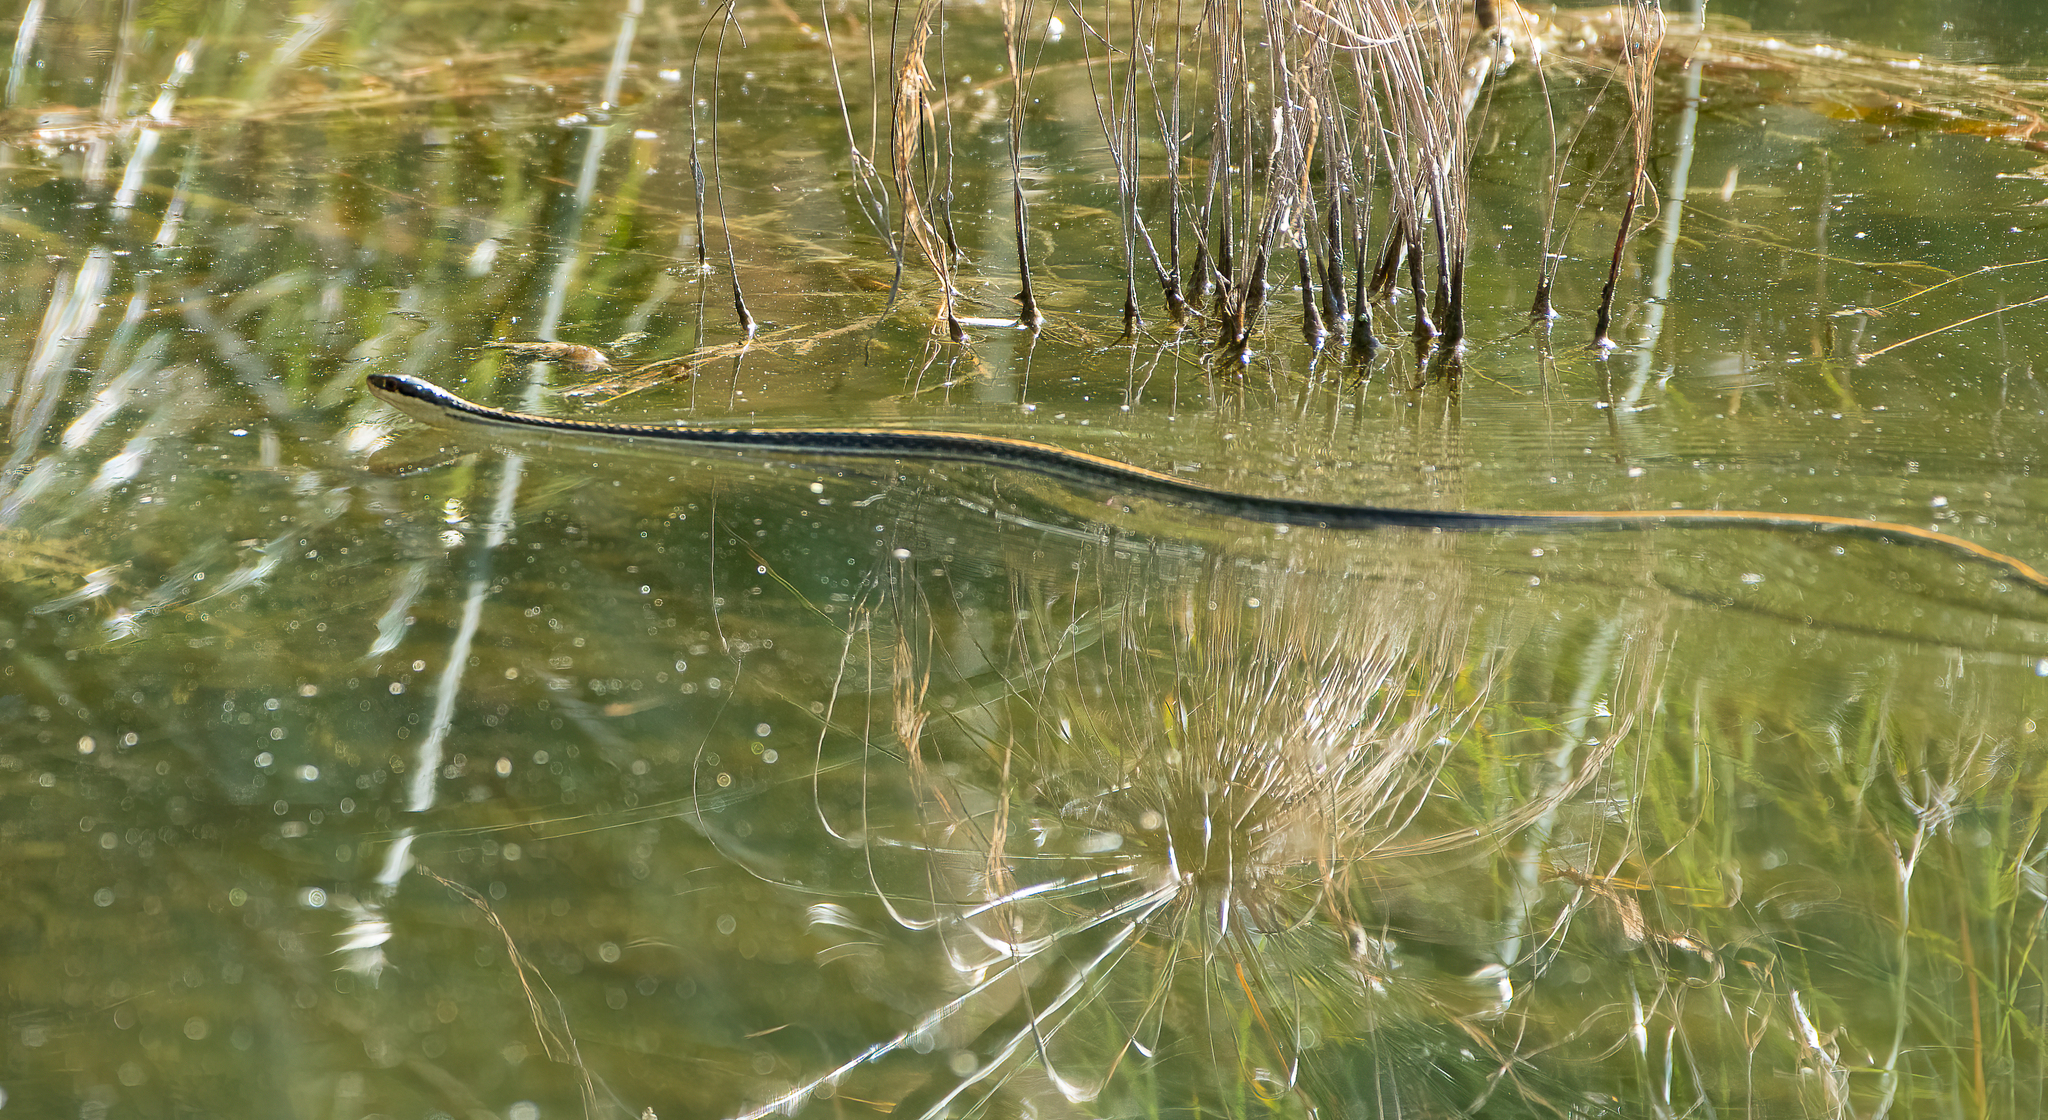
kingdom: Animalia
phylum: Chordata
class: Squamata
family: Colubridae
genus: Thamnophis
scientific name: Thamnophis proximus
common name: Western ribbon snake
